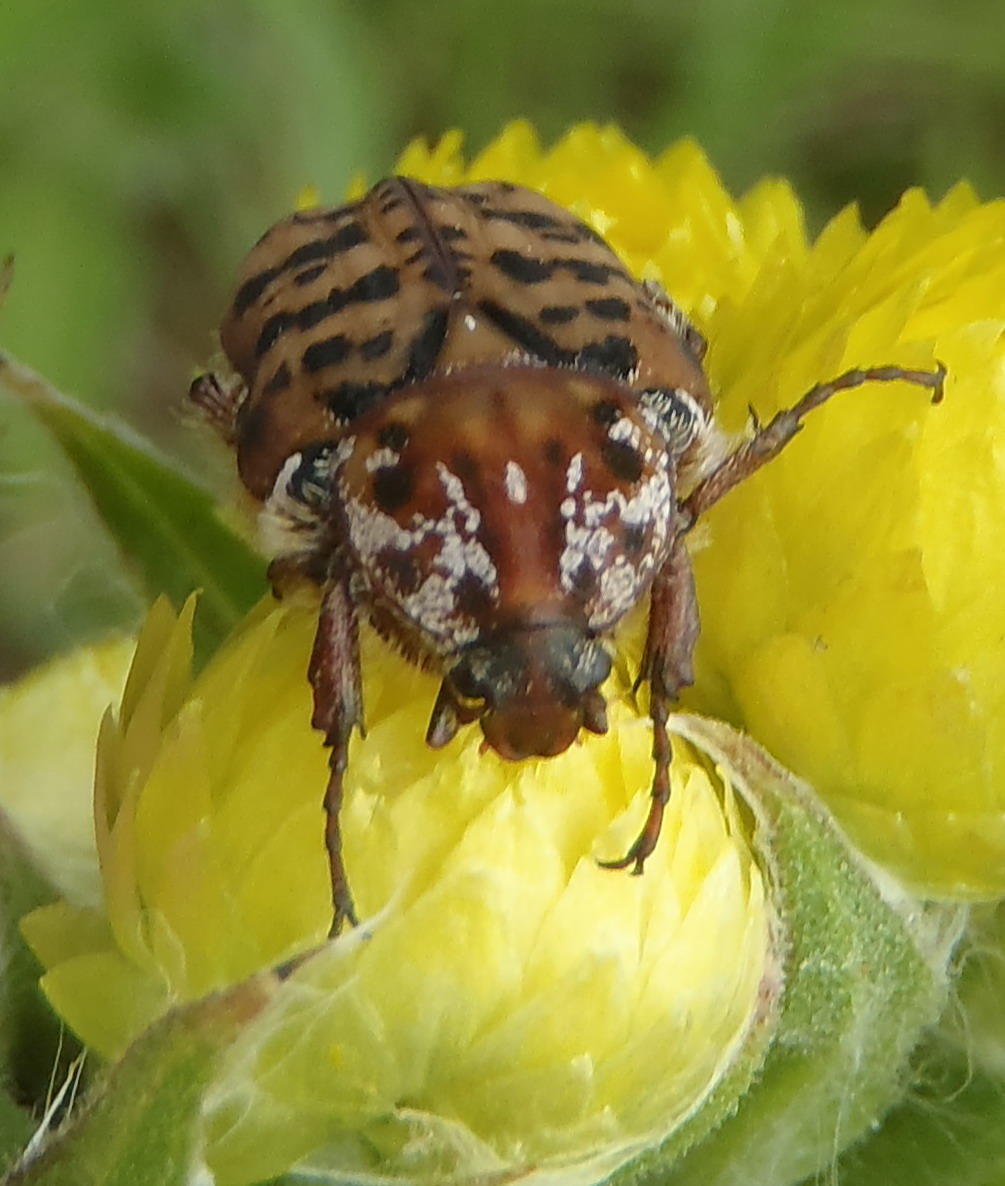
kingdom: Animalia
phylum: Arthropoda
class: Insecta
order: Coleoptera
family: Scarabaeidae
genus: Atrichelaphinis
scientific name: Atrichelaphinis tigrina
